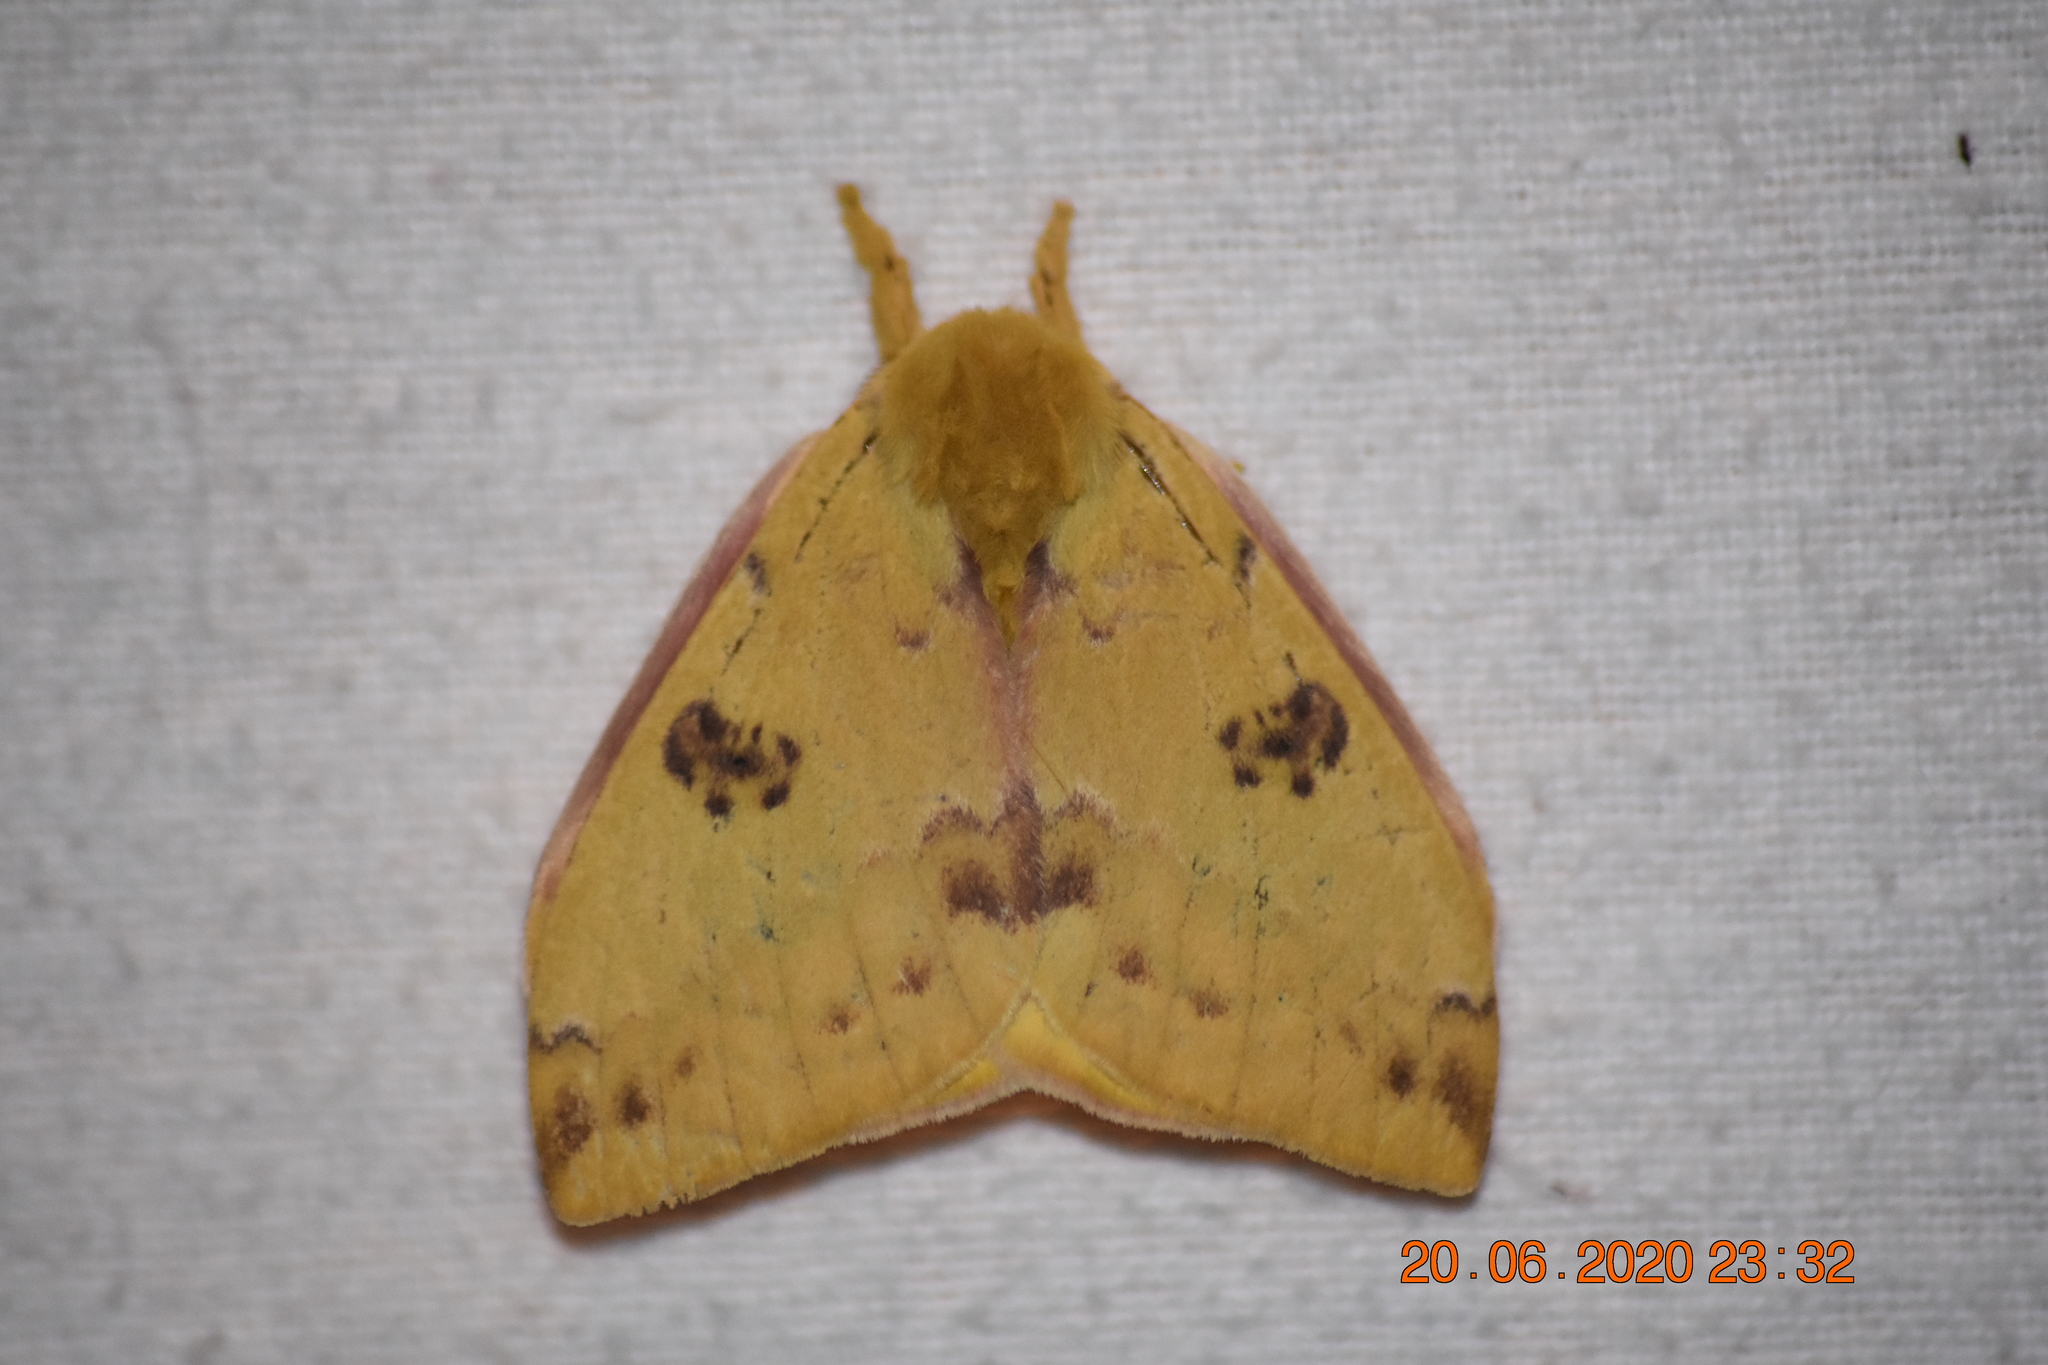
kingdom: Animalia
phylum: Arthropoda
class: Insecta
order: Lepidoptera
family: Saturniidae
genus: Automeris
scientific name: Automeris io
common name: Io moth
